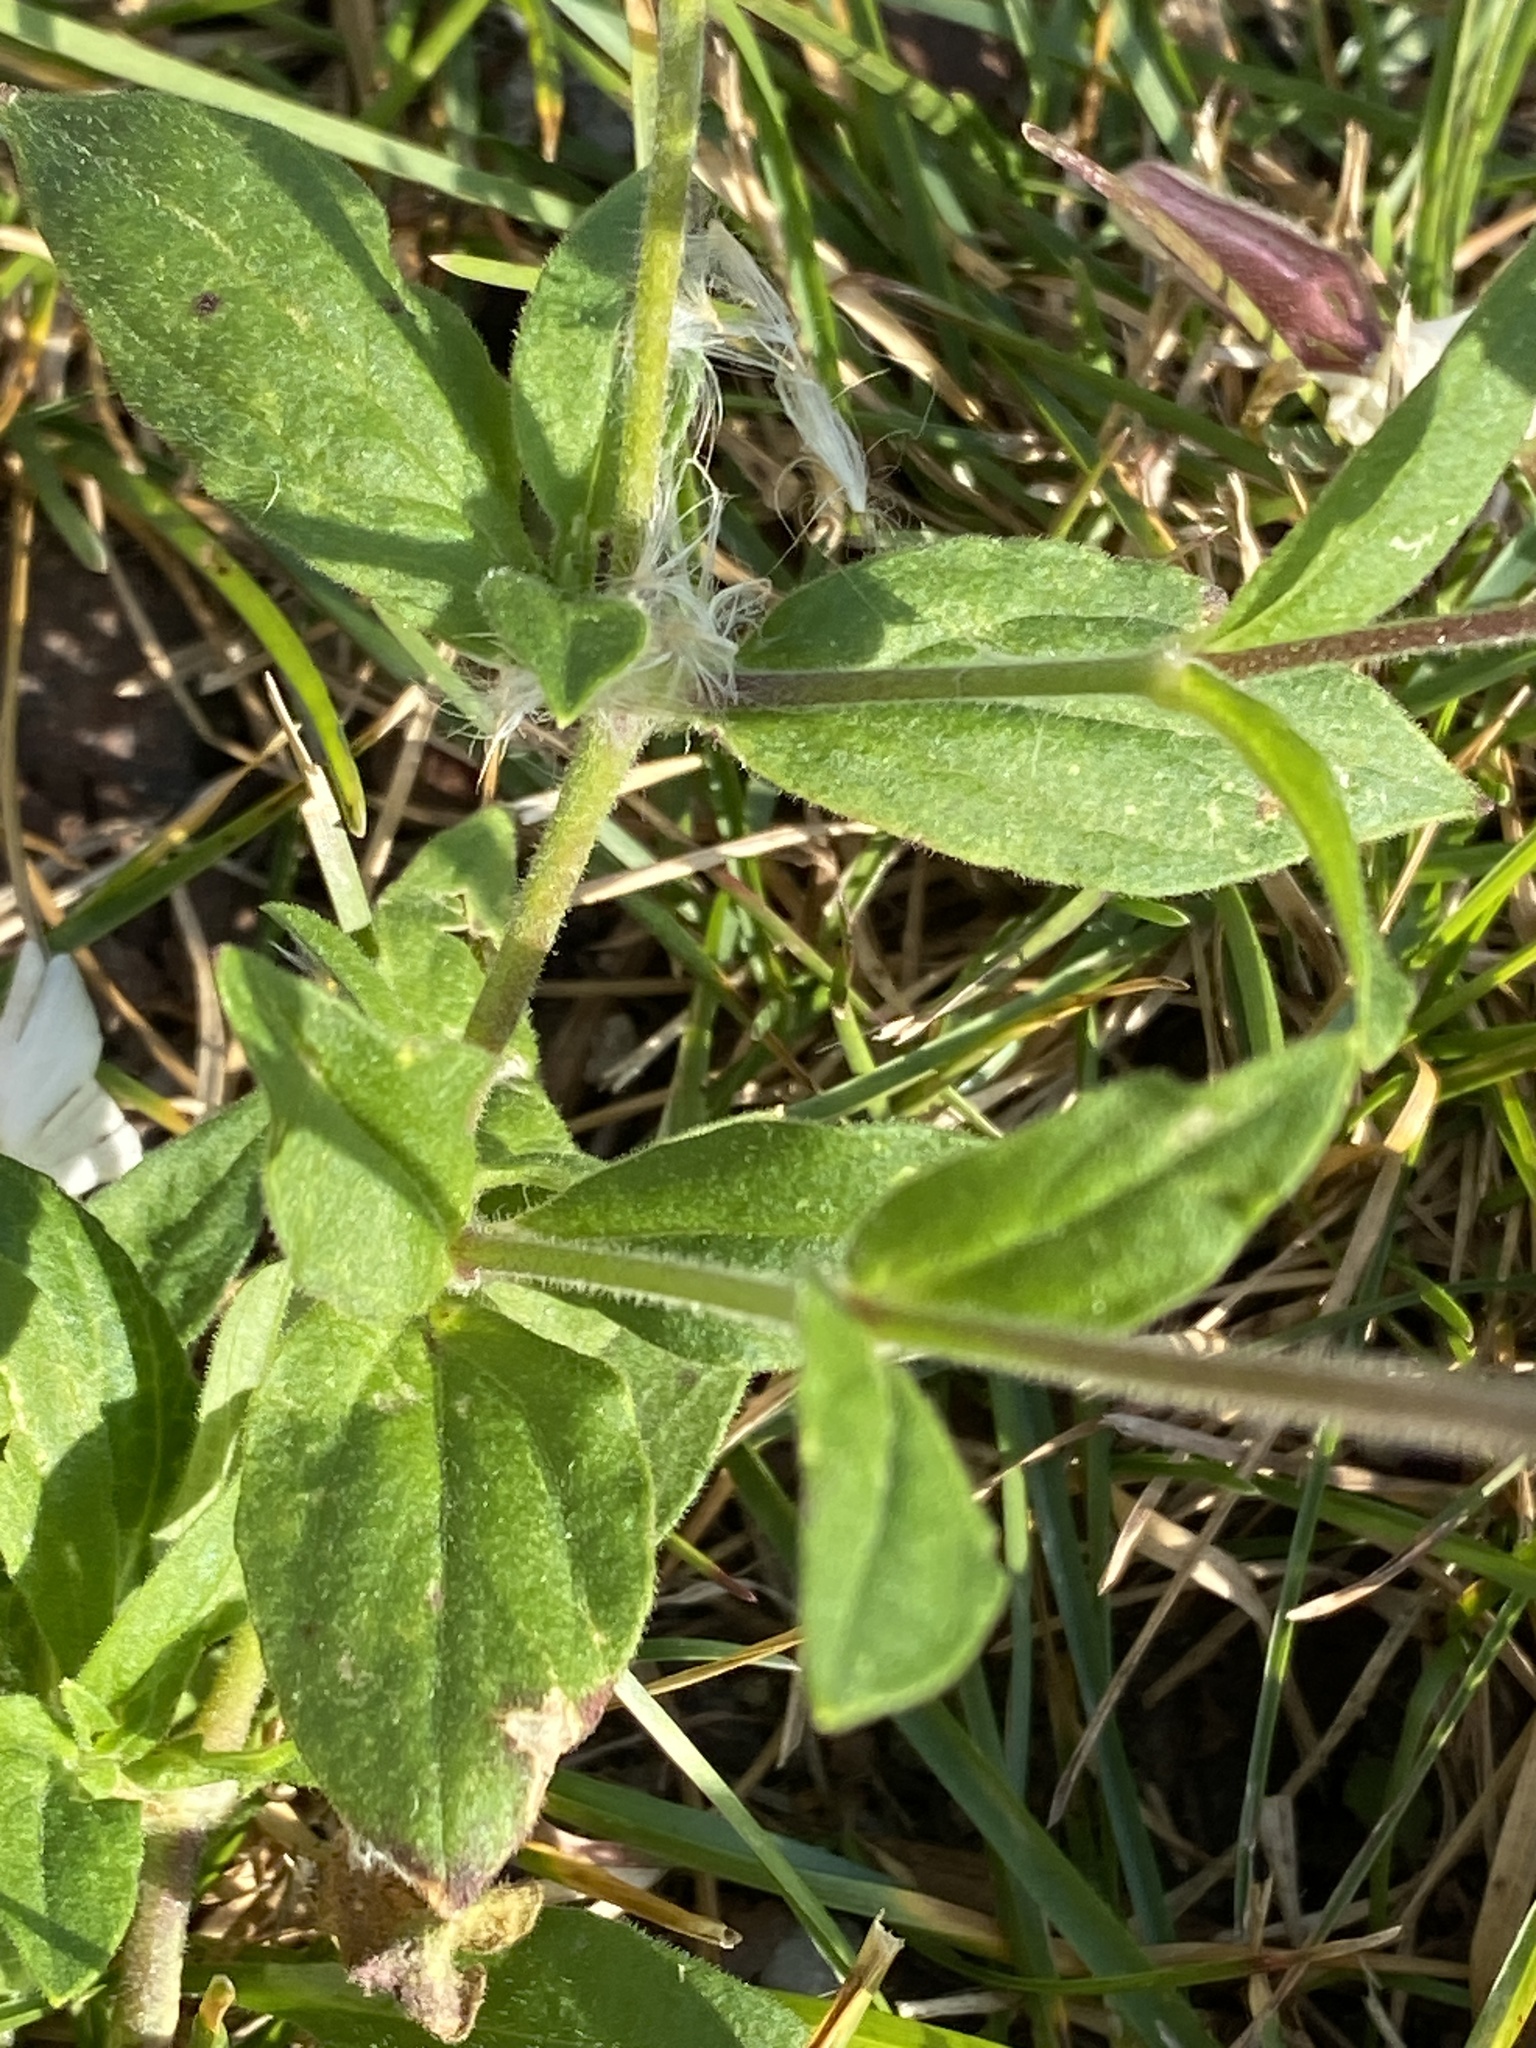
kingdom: Plantae
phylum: Tracheophyta
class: Magnoliopsida
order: Caryophyllales
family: Caryophyllaceae
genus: Silene
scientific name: Silene latifolia
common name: White campion
